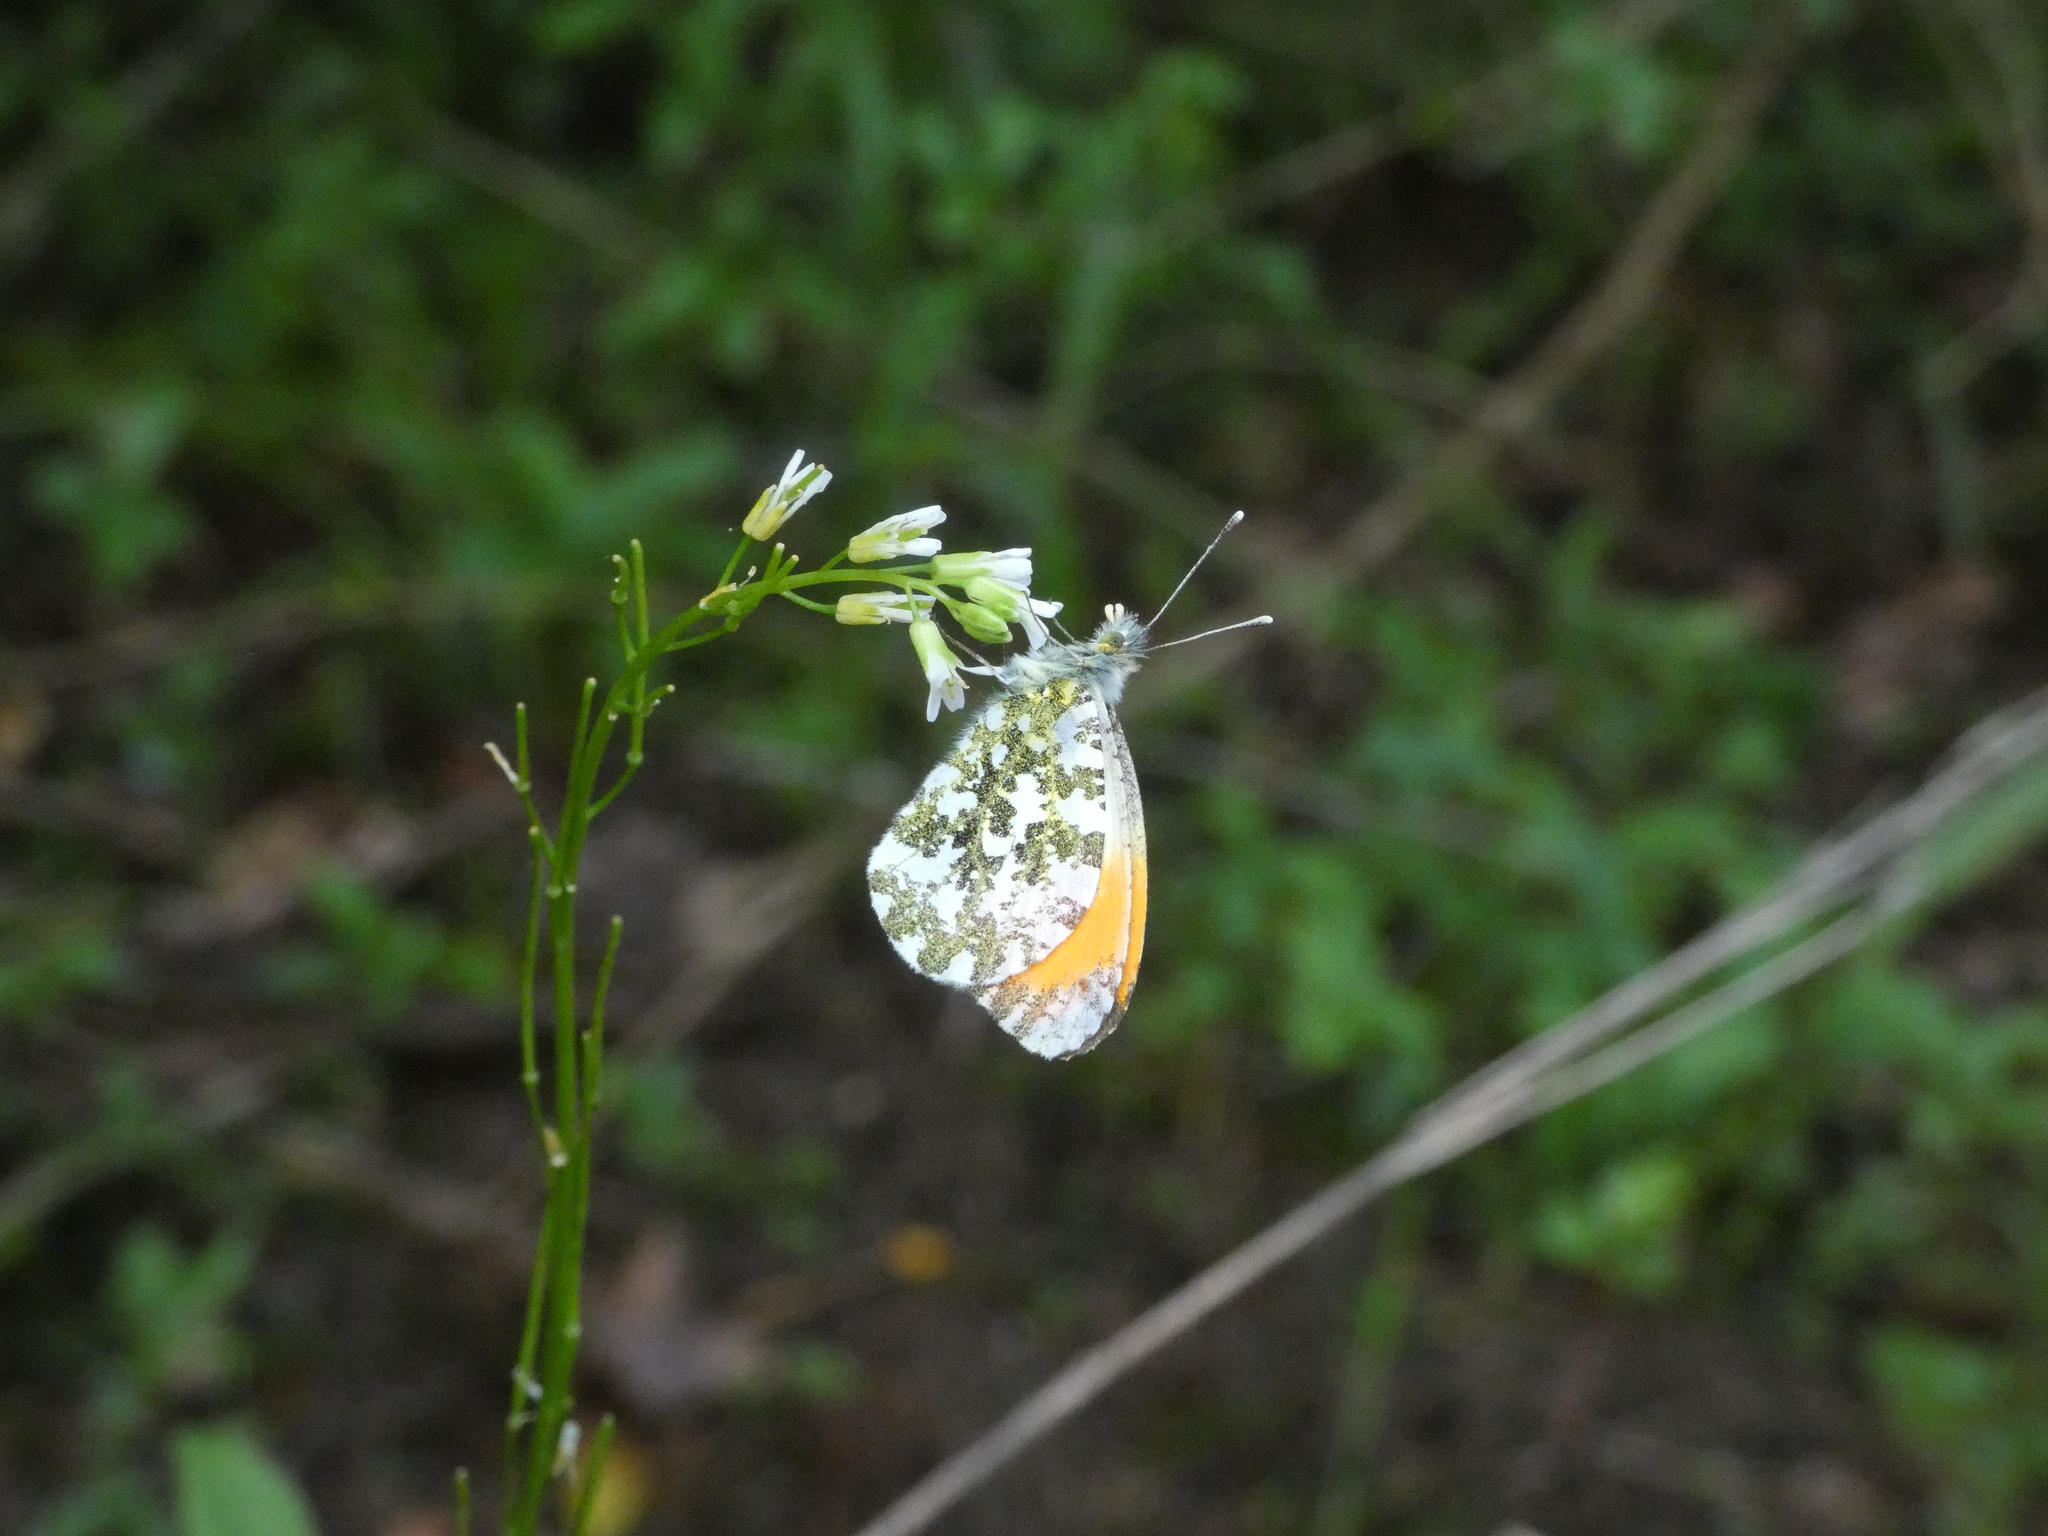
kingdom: Animalia
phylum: Arthropoda
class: Insecta
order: Lepidoptera
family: Pieridae
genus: Anthocharis
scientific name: Anthocharis cardamines
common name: Orange-tip
